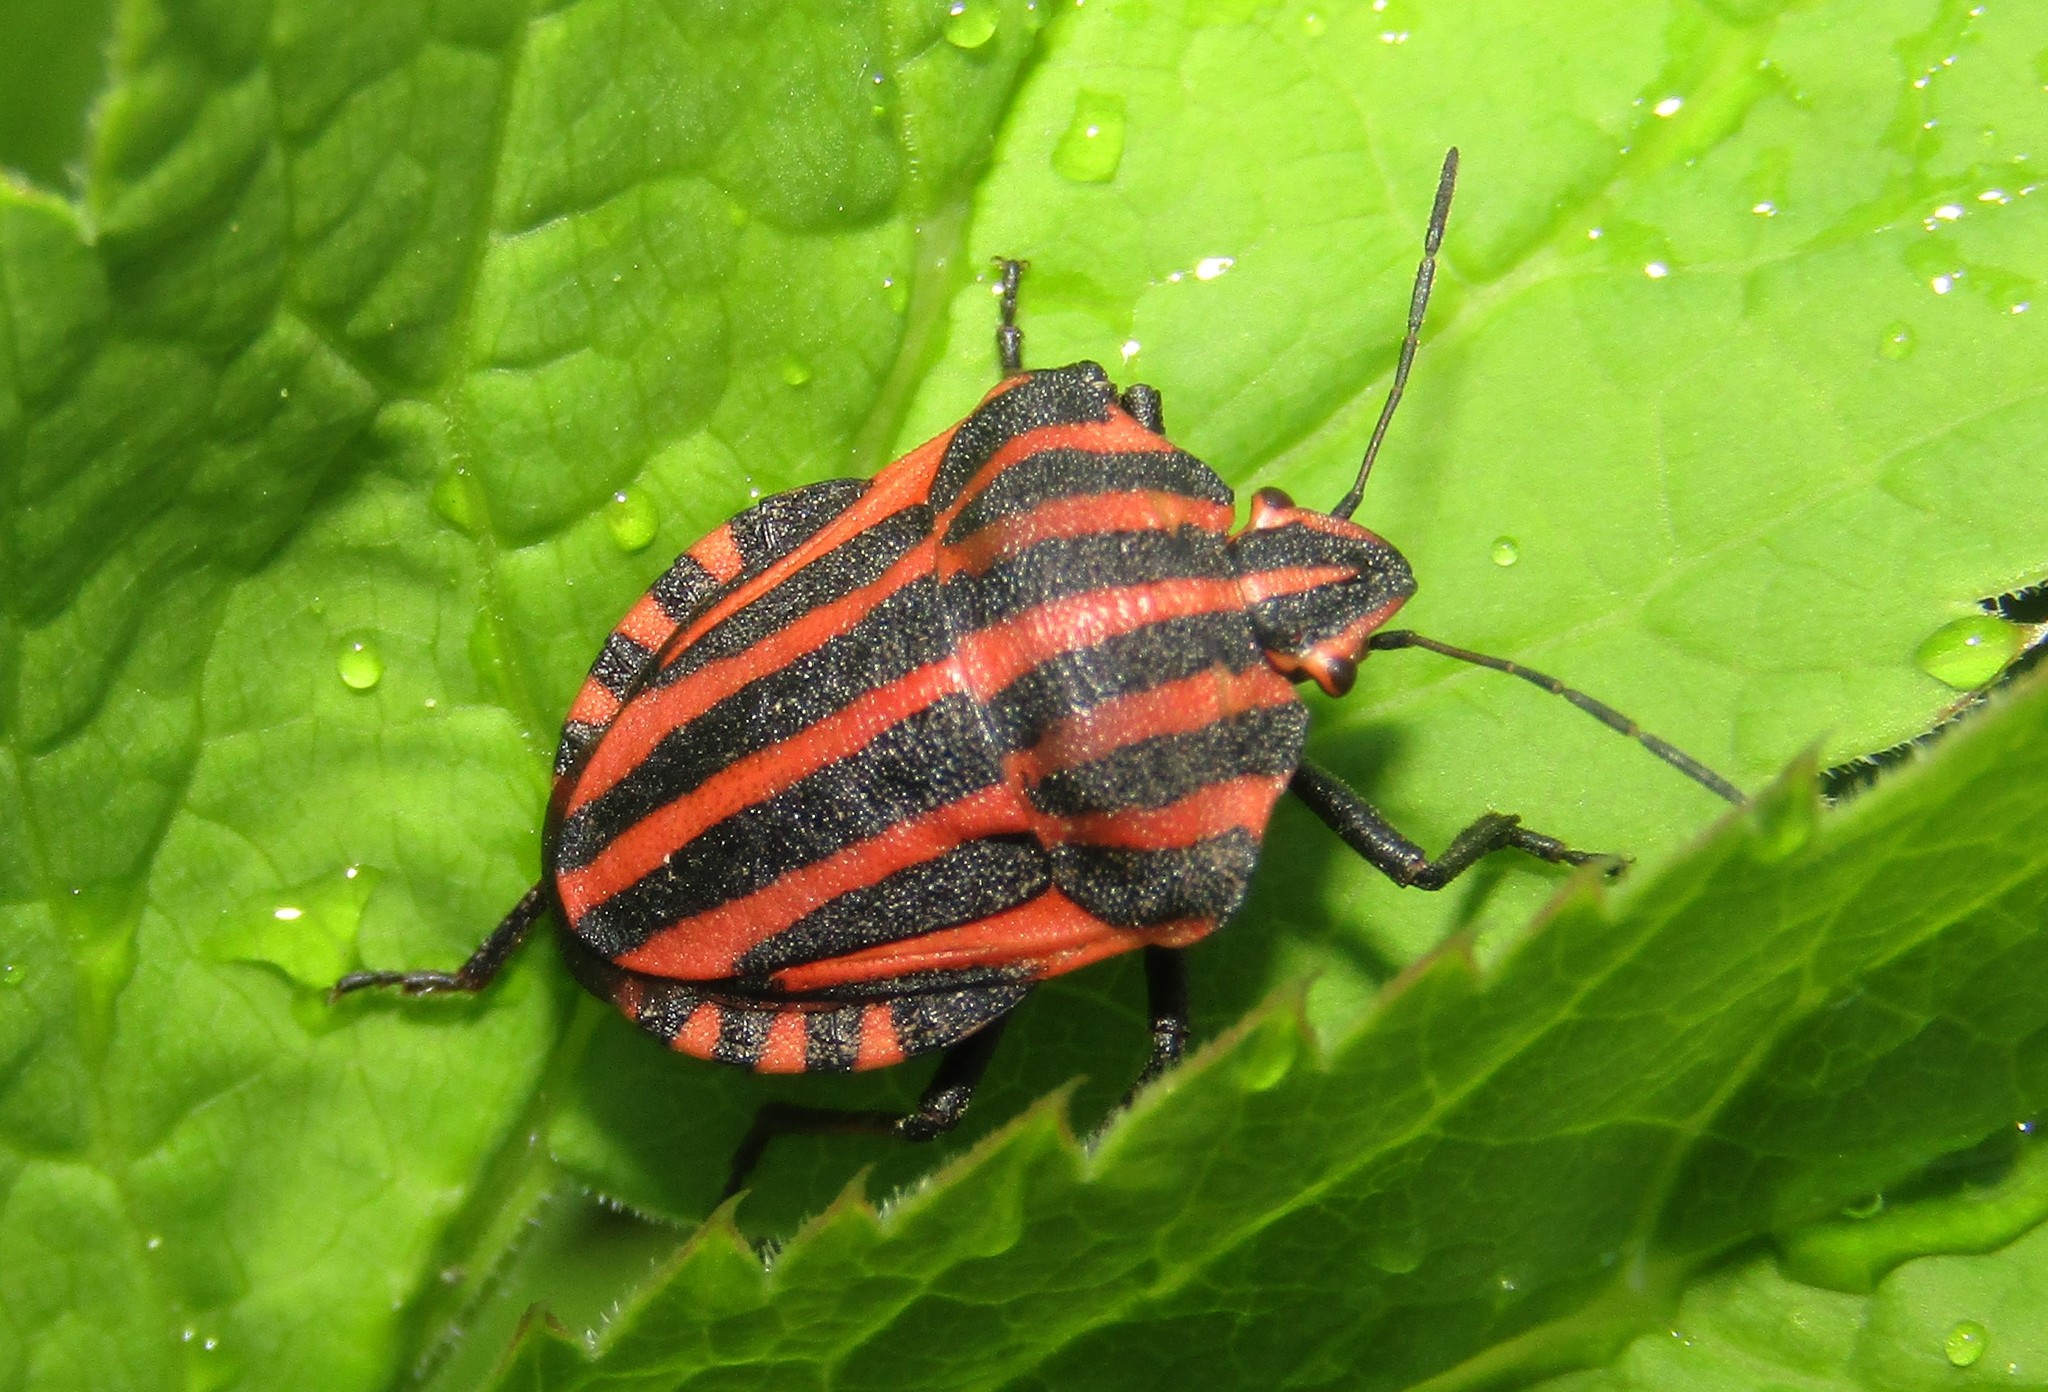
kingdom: Animalia
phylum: Arthropoda
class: Insecta
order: Hemiptera
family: Pentatomidae
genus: Graphosoma
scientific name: Graphosoma italicum
